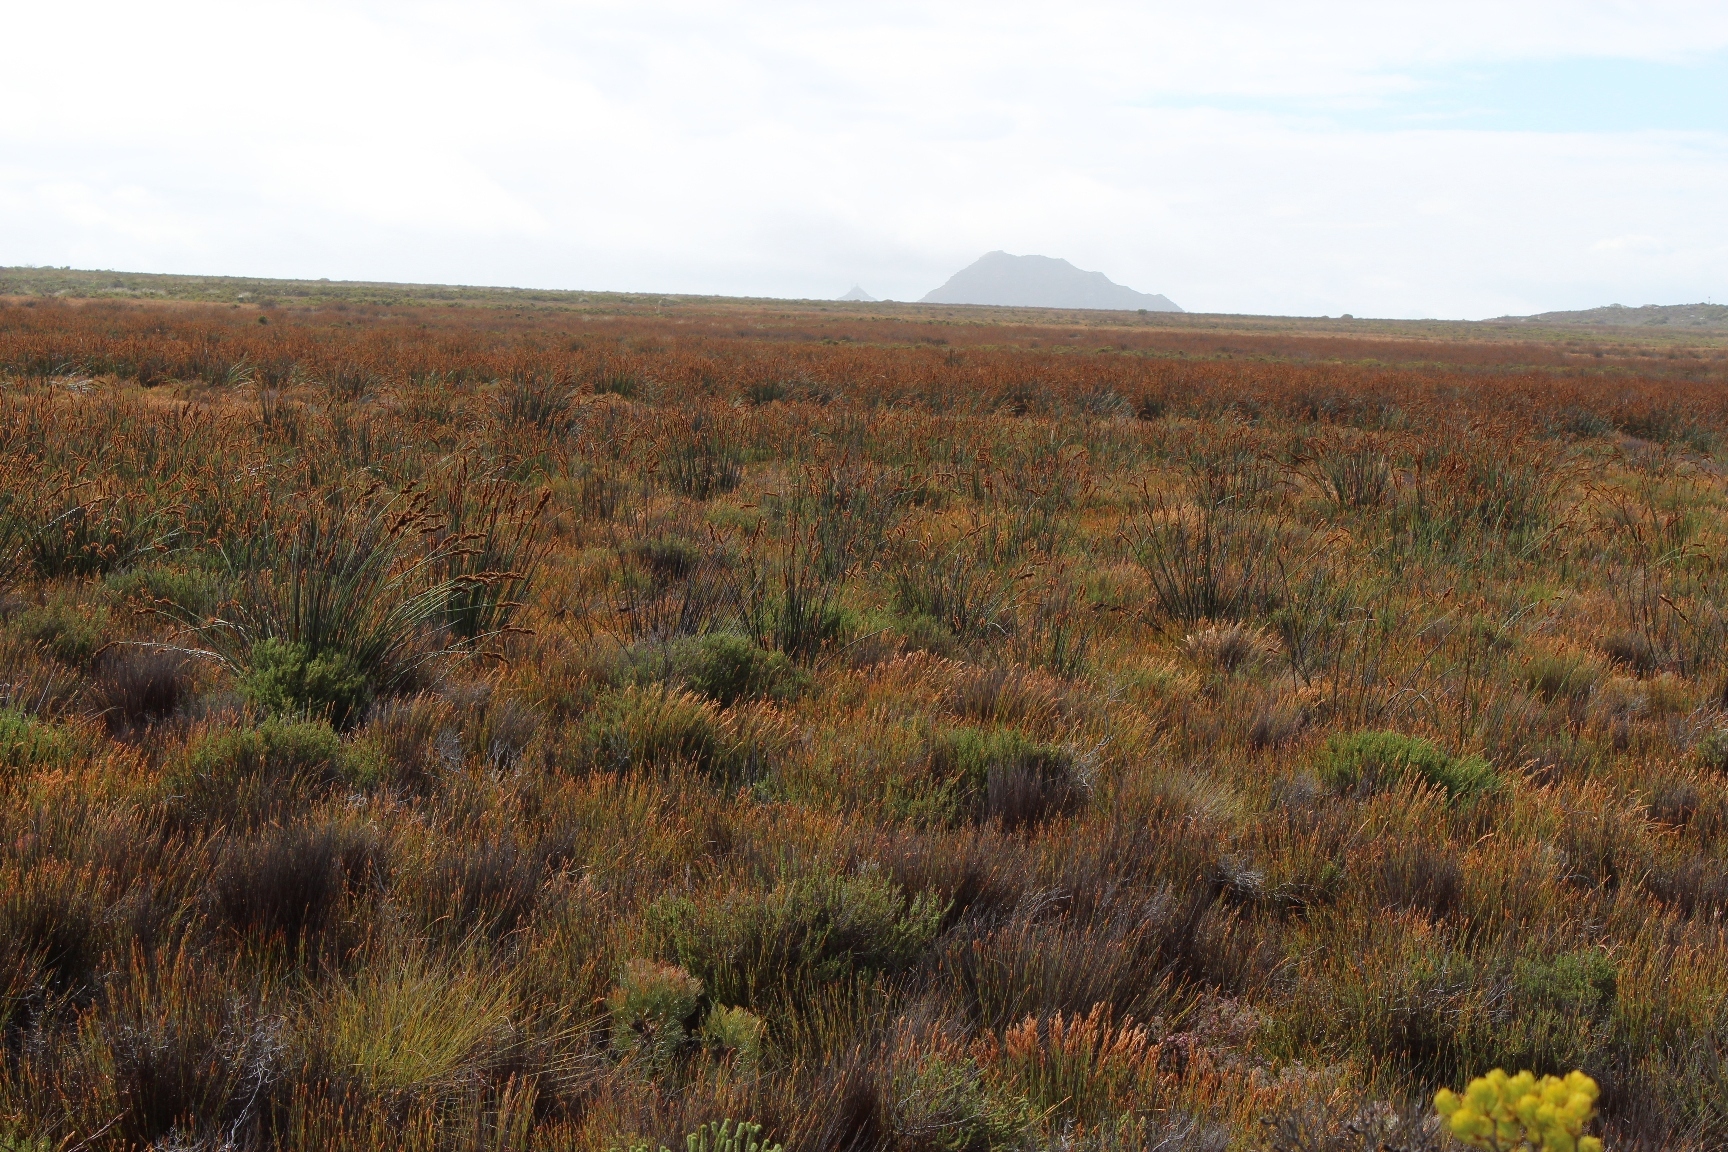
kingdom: Plantae
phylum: Tracheophyta
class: Liliopsida
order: Poales
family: Restionaceae
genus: Elegia
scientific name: Elegia cuspidata
